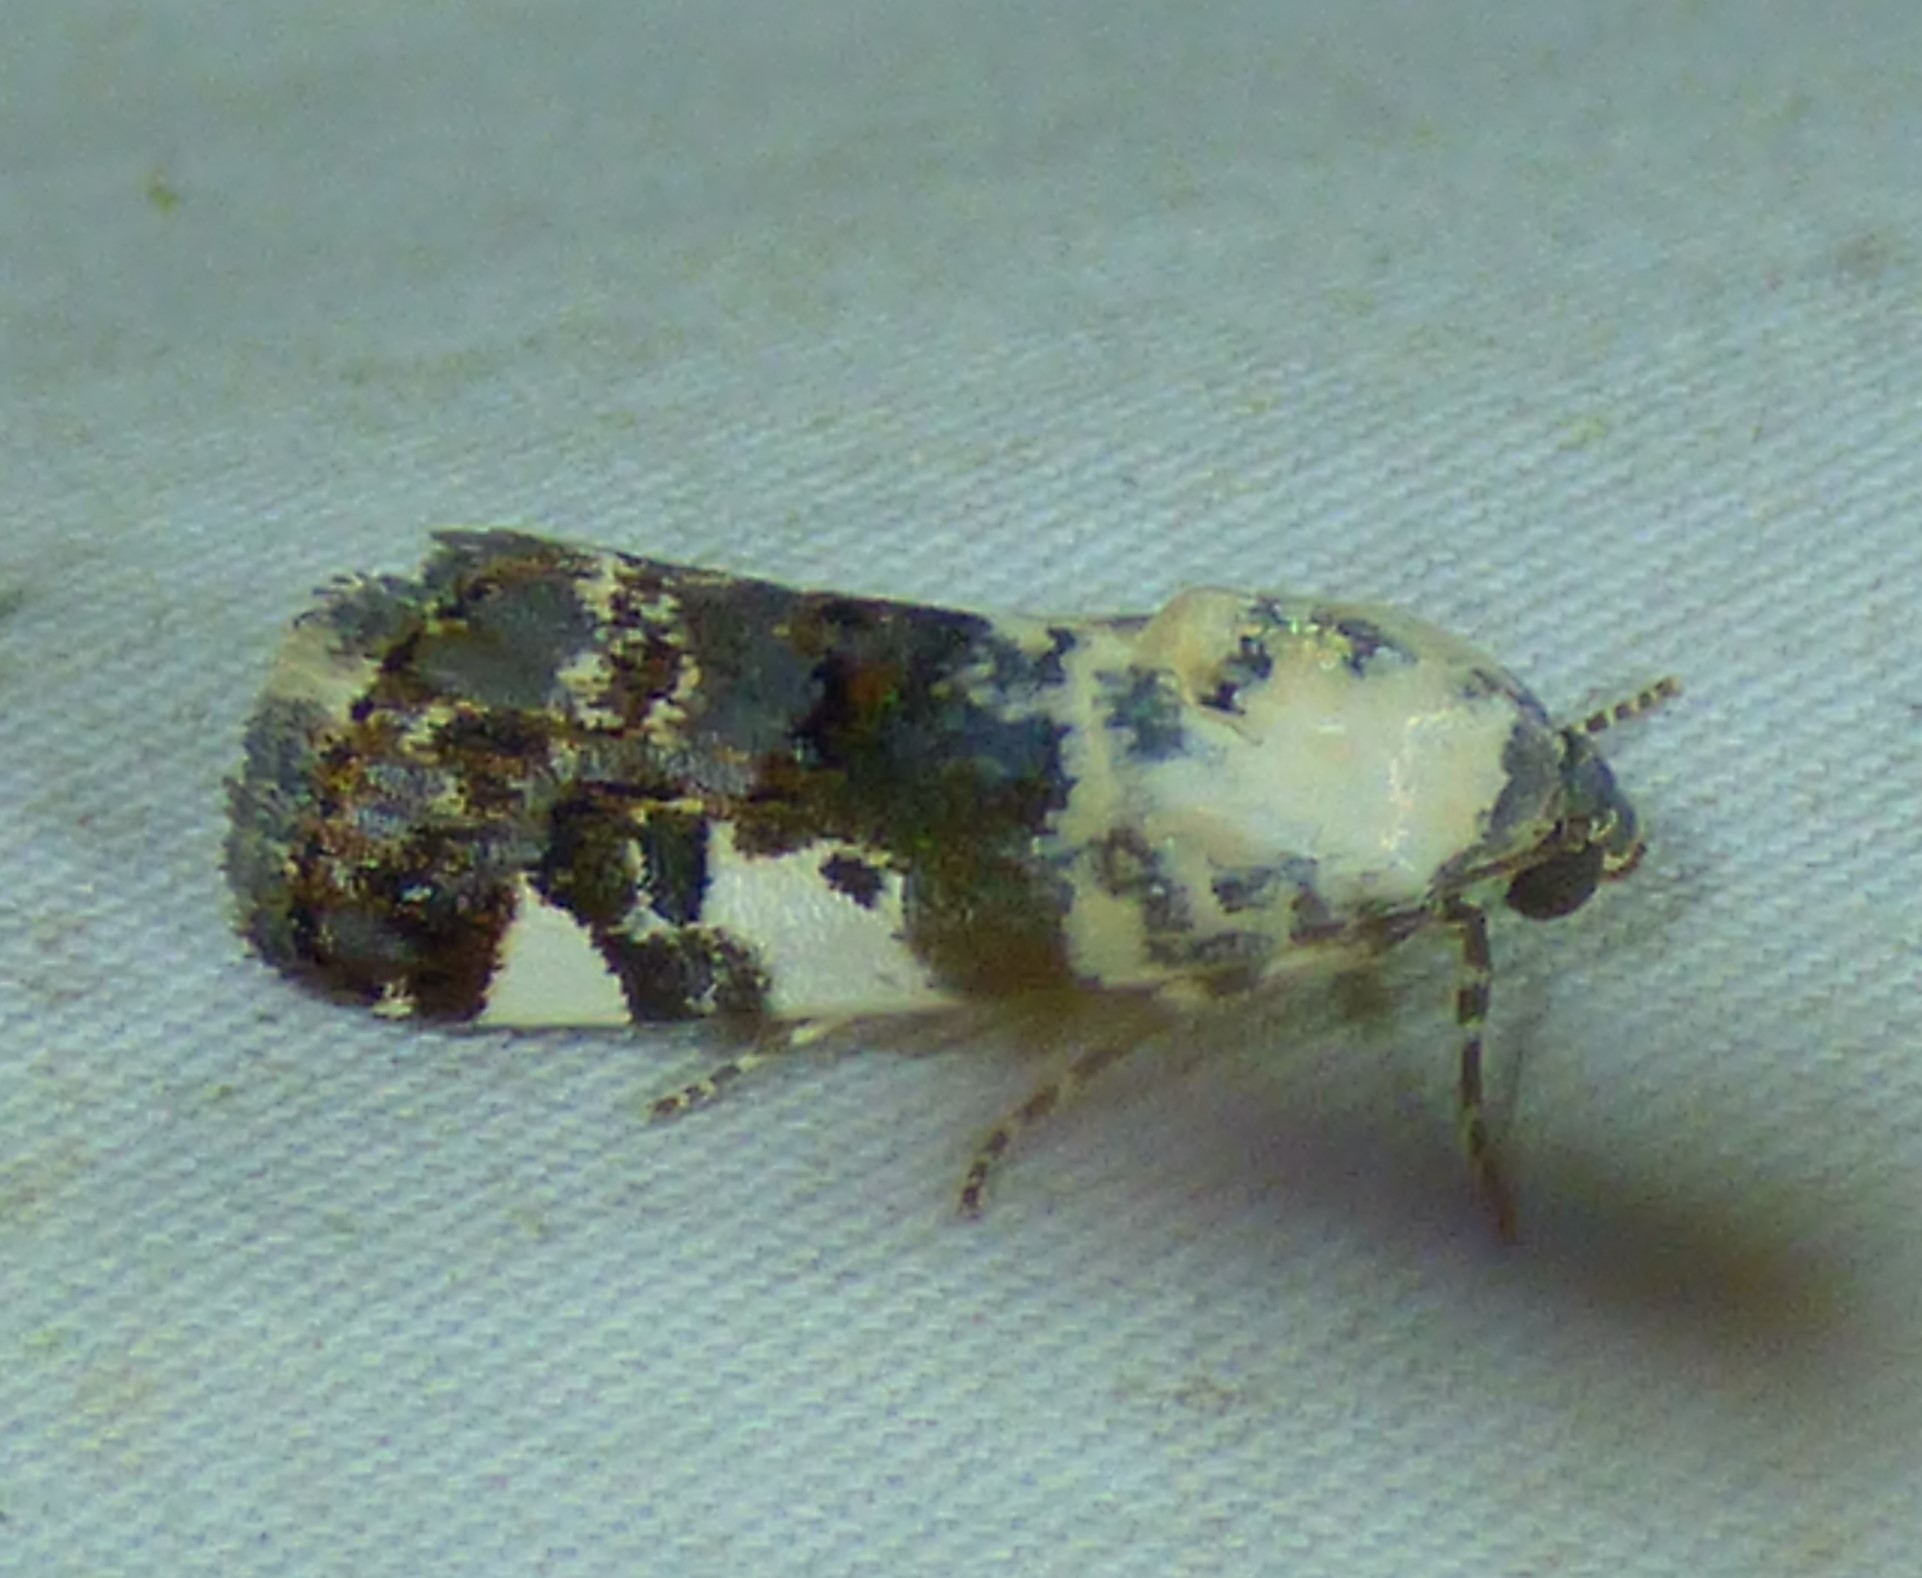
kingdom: Animalia
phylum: Arthropoda
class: Insecta
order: Lepidoptera
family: Noctuidae
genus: Acontia
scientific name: Acontia aprica
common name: Nun
